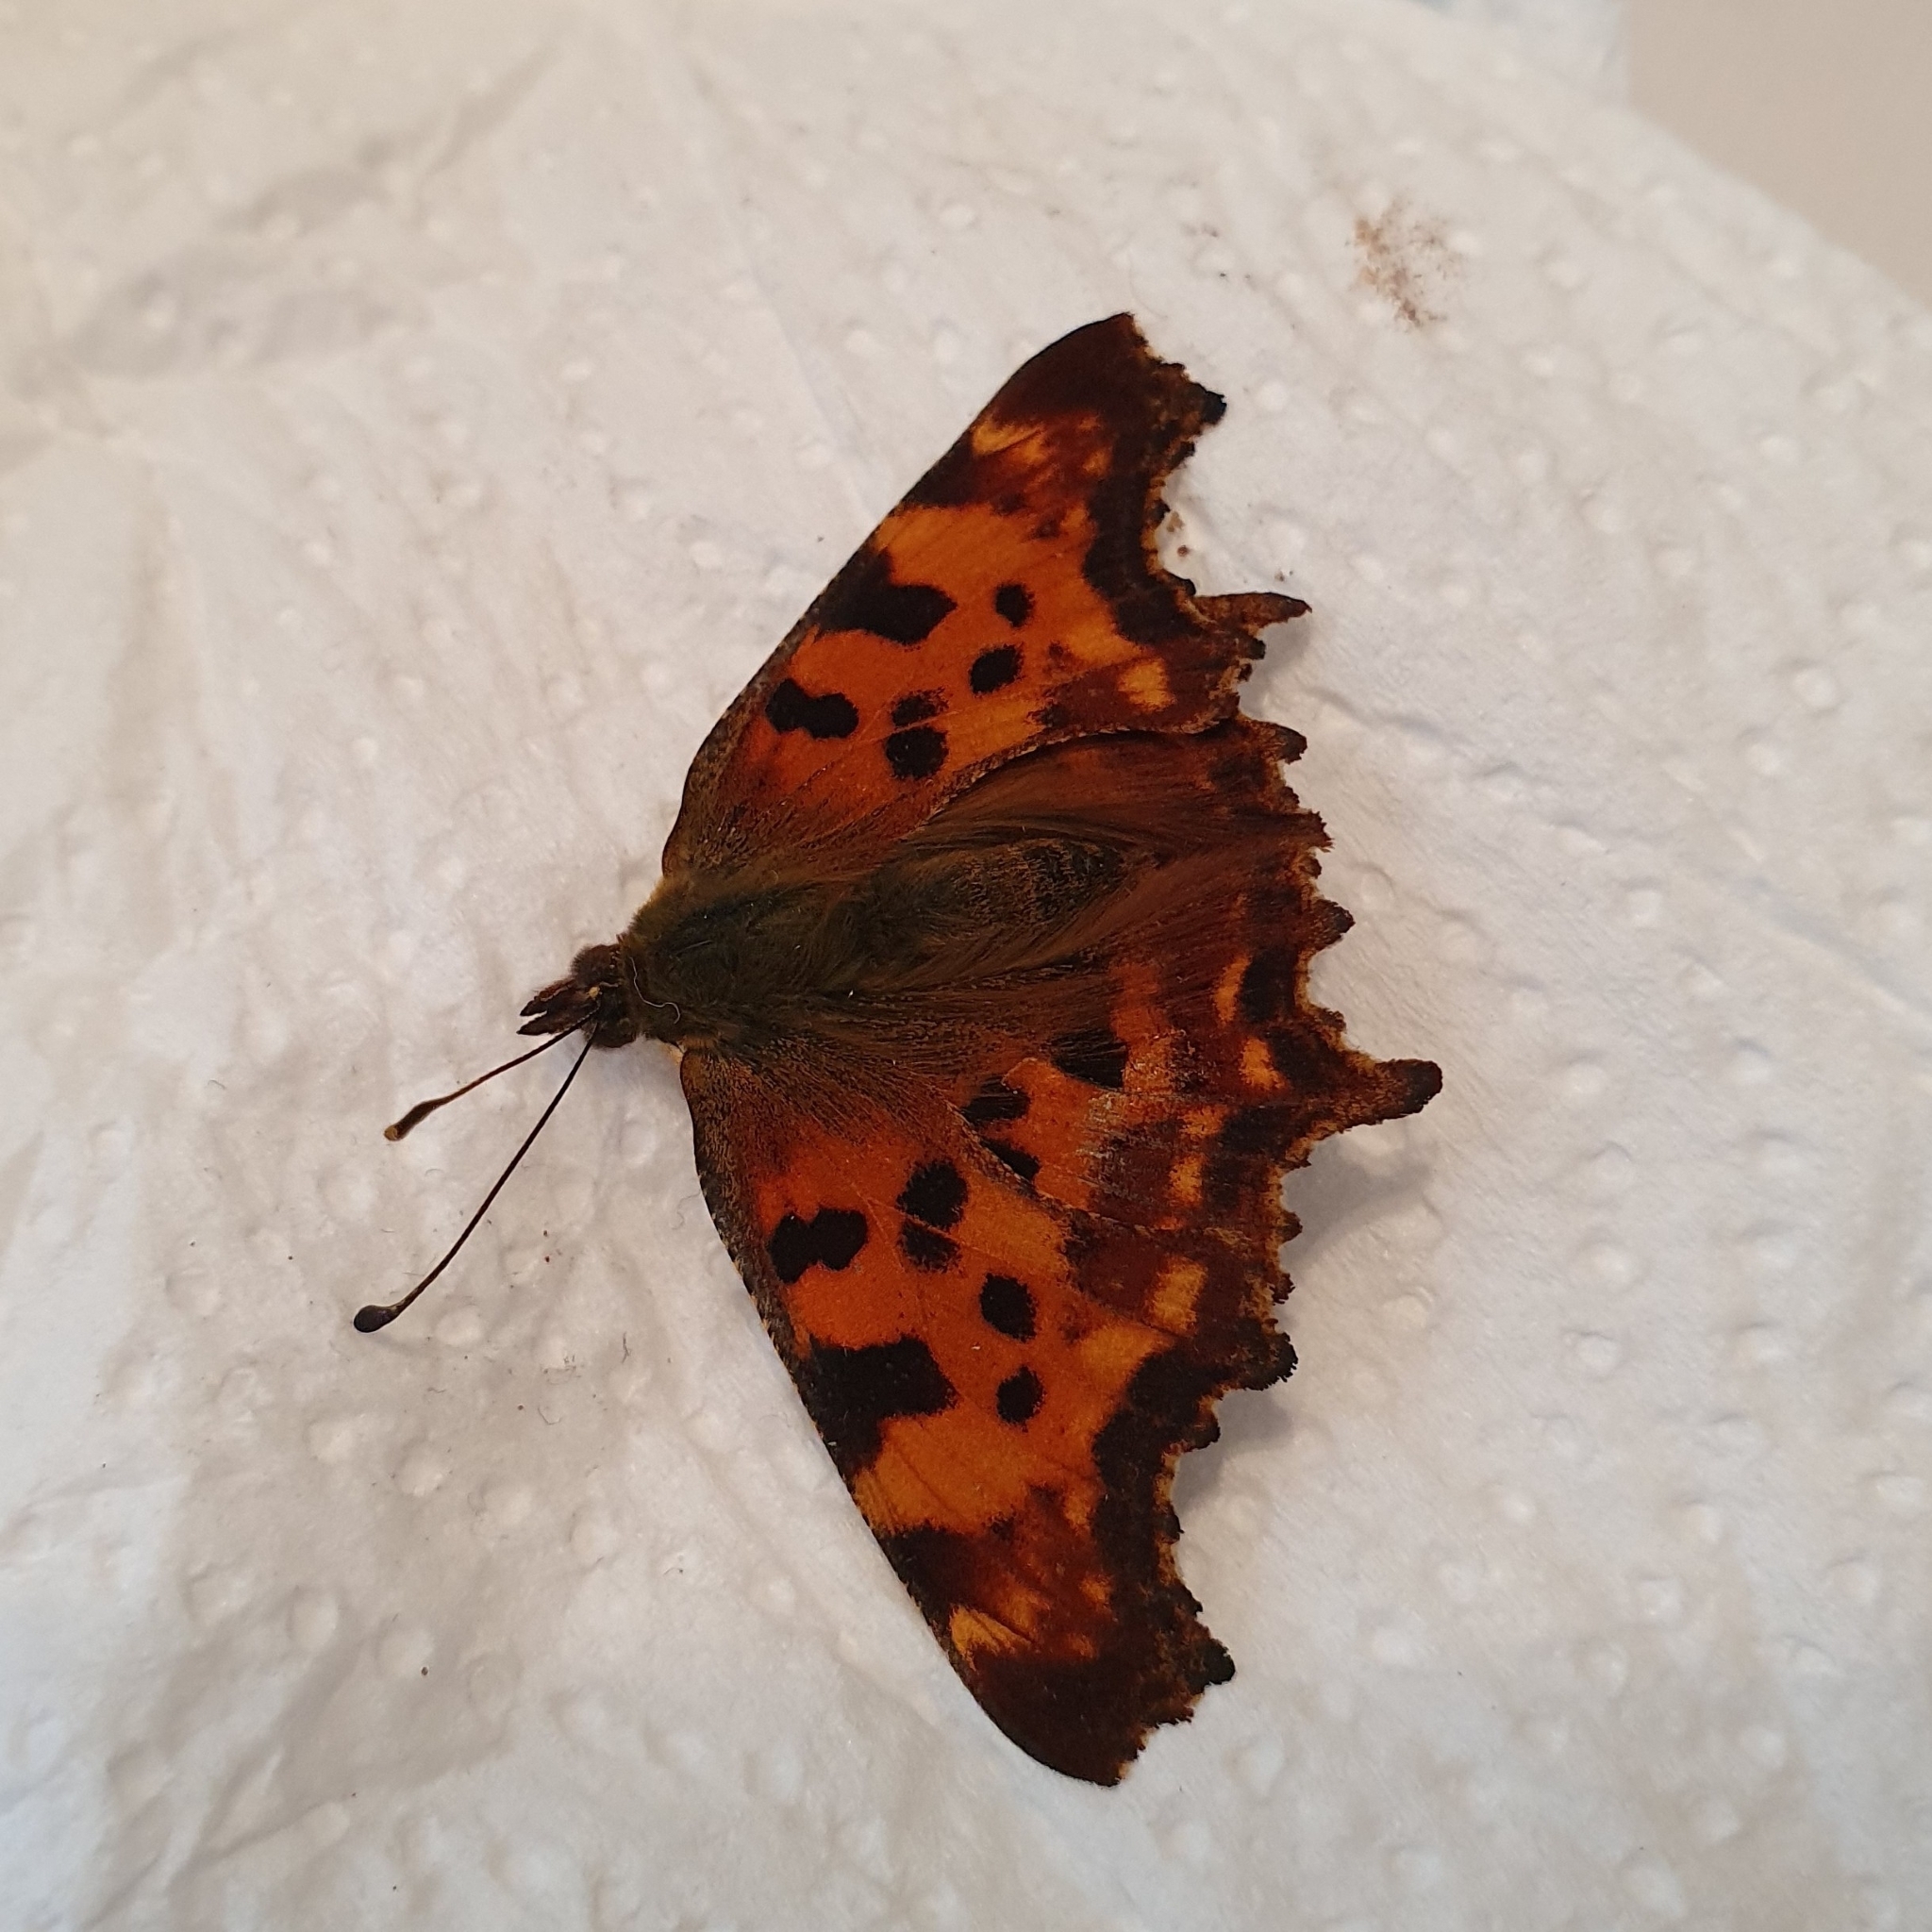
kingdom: Animalia
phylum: Arthropoda
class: Insecta
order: Lepidoptera
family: Nymphalidae
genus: Polygonia
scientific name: Polygonia c-album
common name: Comma
